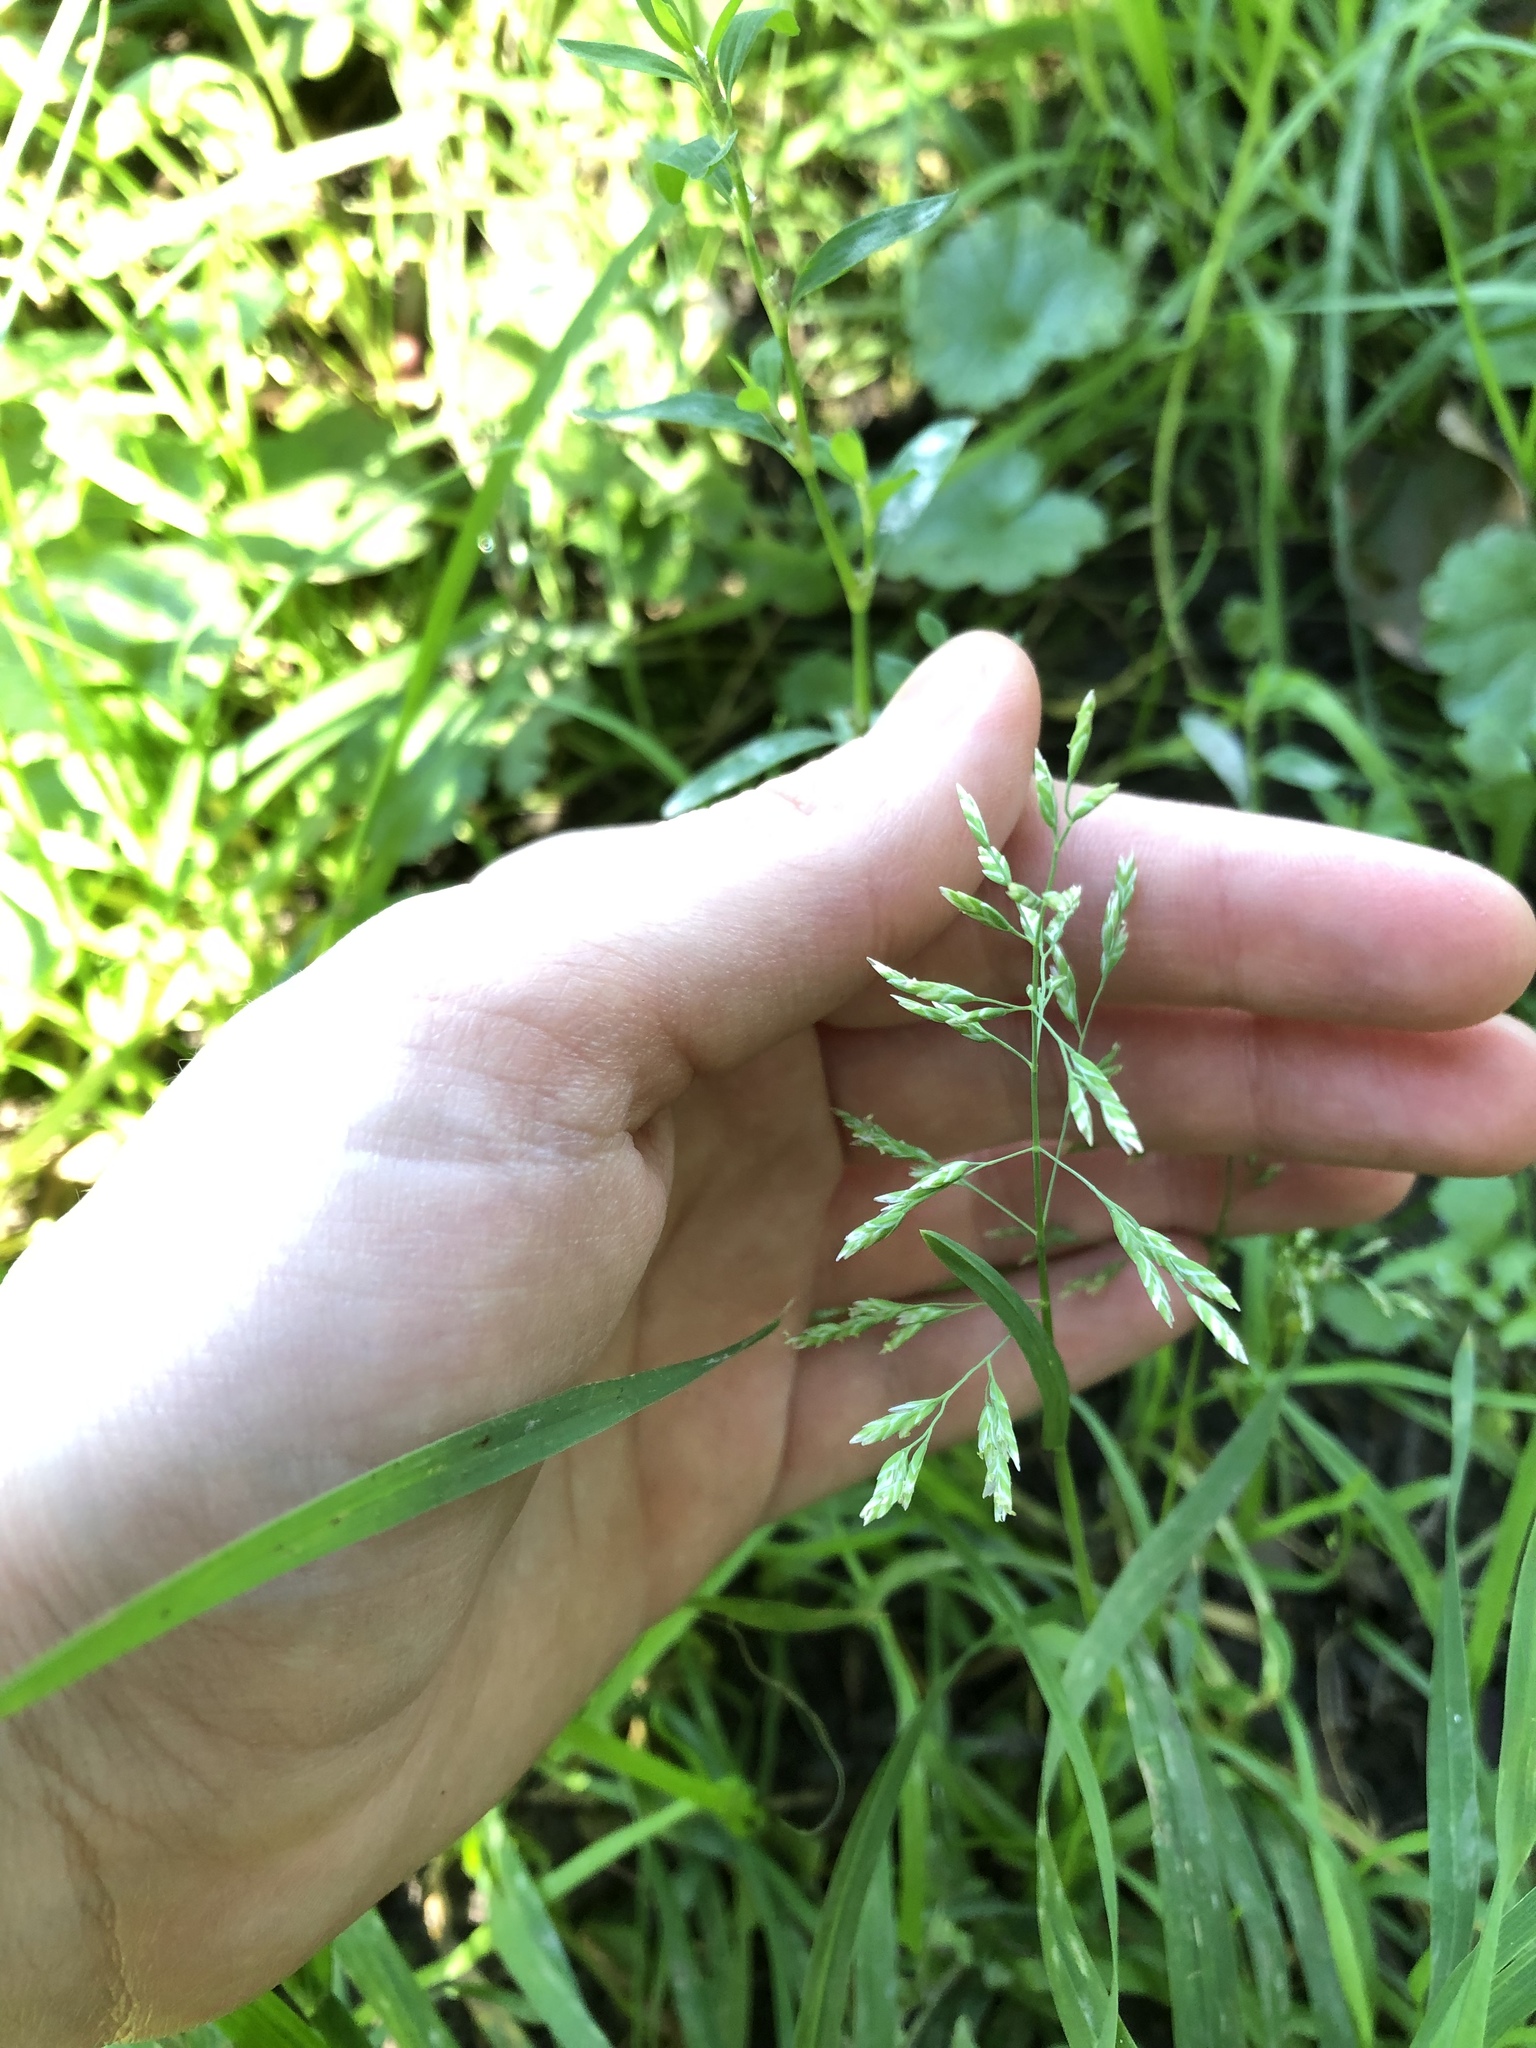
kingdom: Plantae
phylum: Tracheophyta
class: Liliopsida
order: Poales
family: Poaceae
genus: Poa
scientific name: Poa annua
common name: Annual bluegrass
